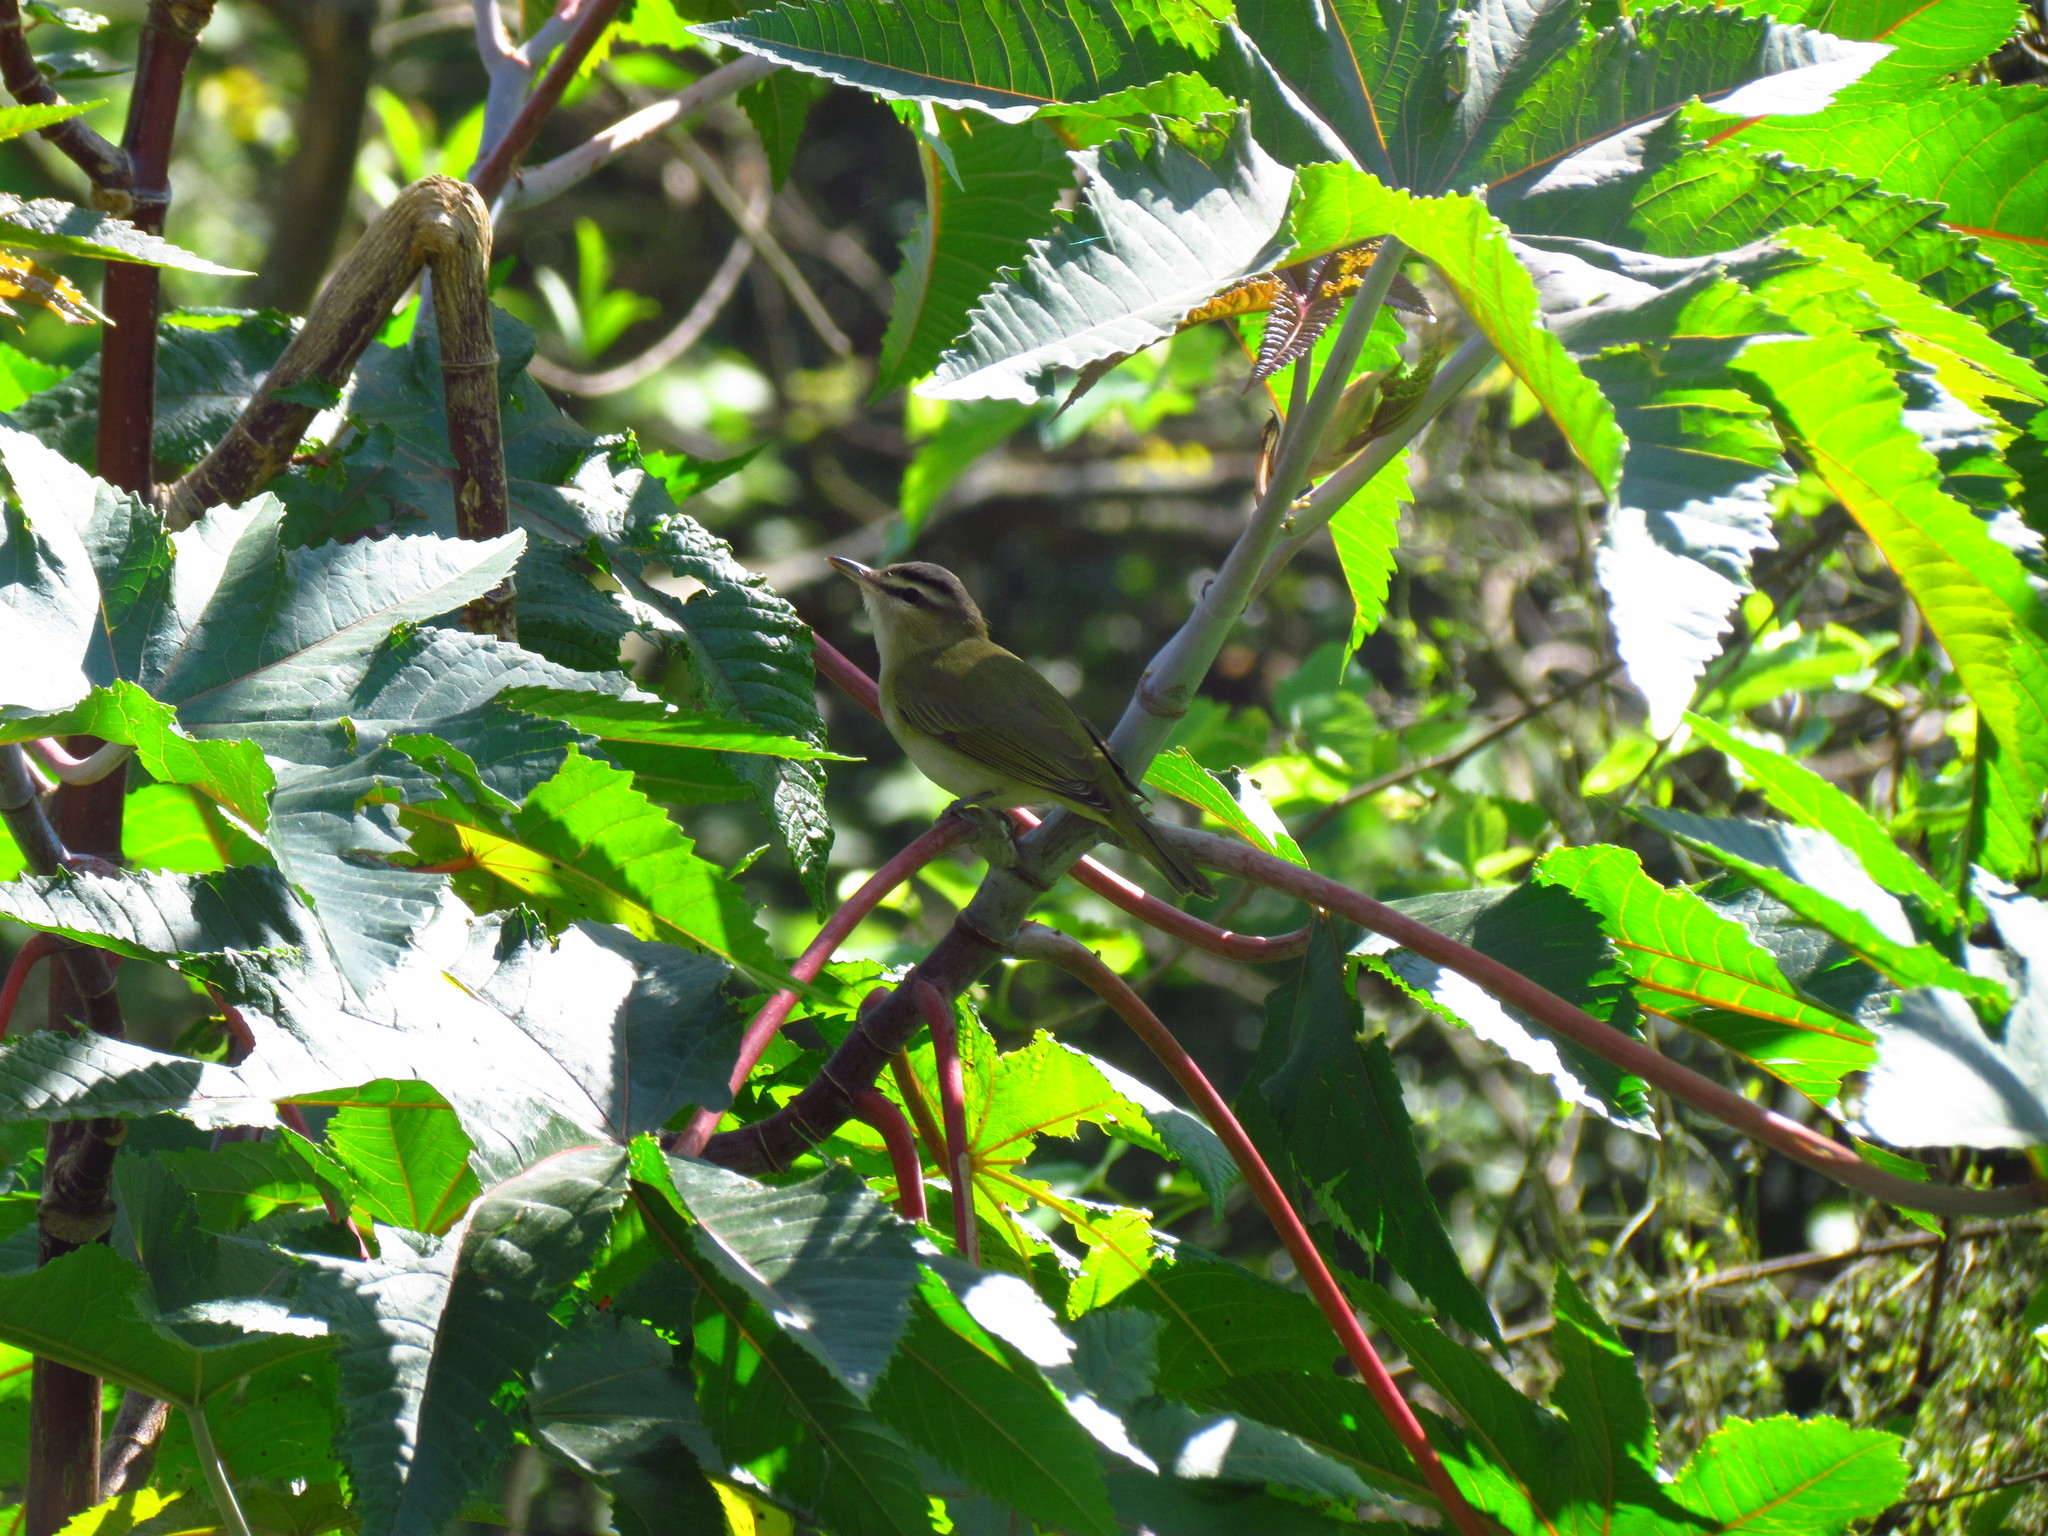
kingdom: Animalia
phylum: Chordata
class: Aves
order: Passeriformes
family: Vireonidae
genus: Vireo
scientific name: Vireo olivaceus
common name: Red-eyed vireo
